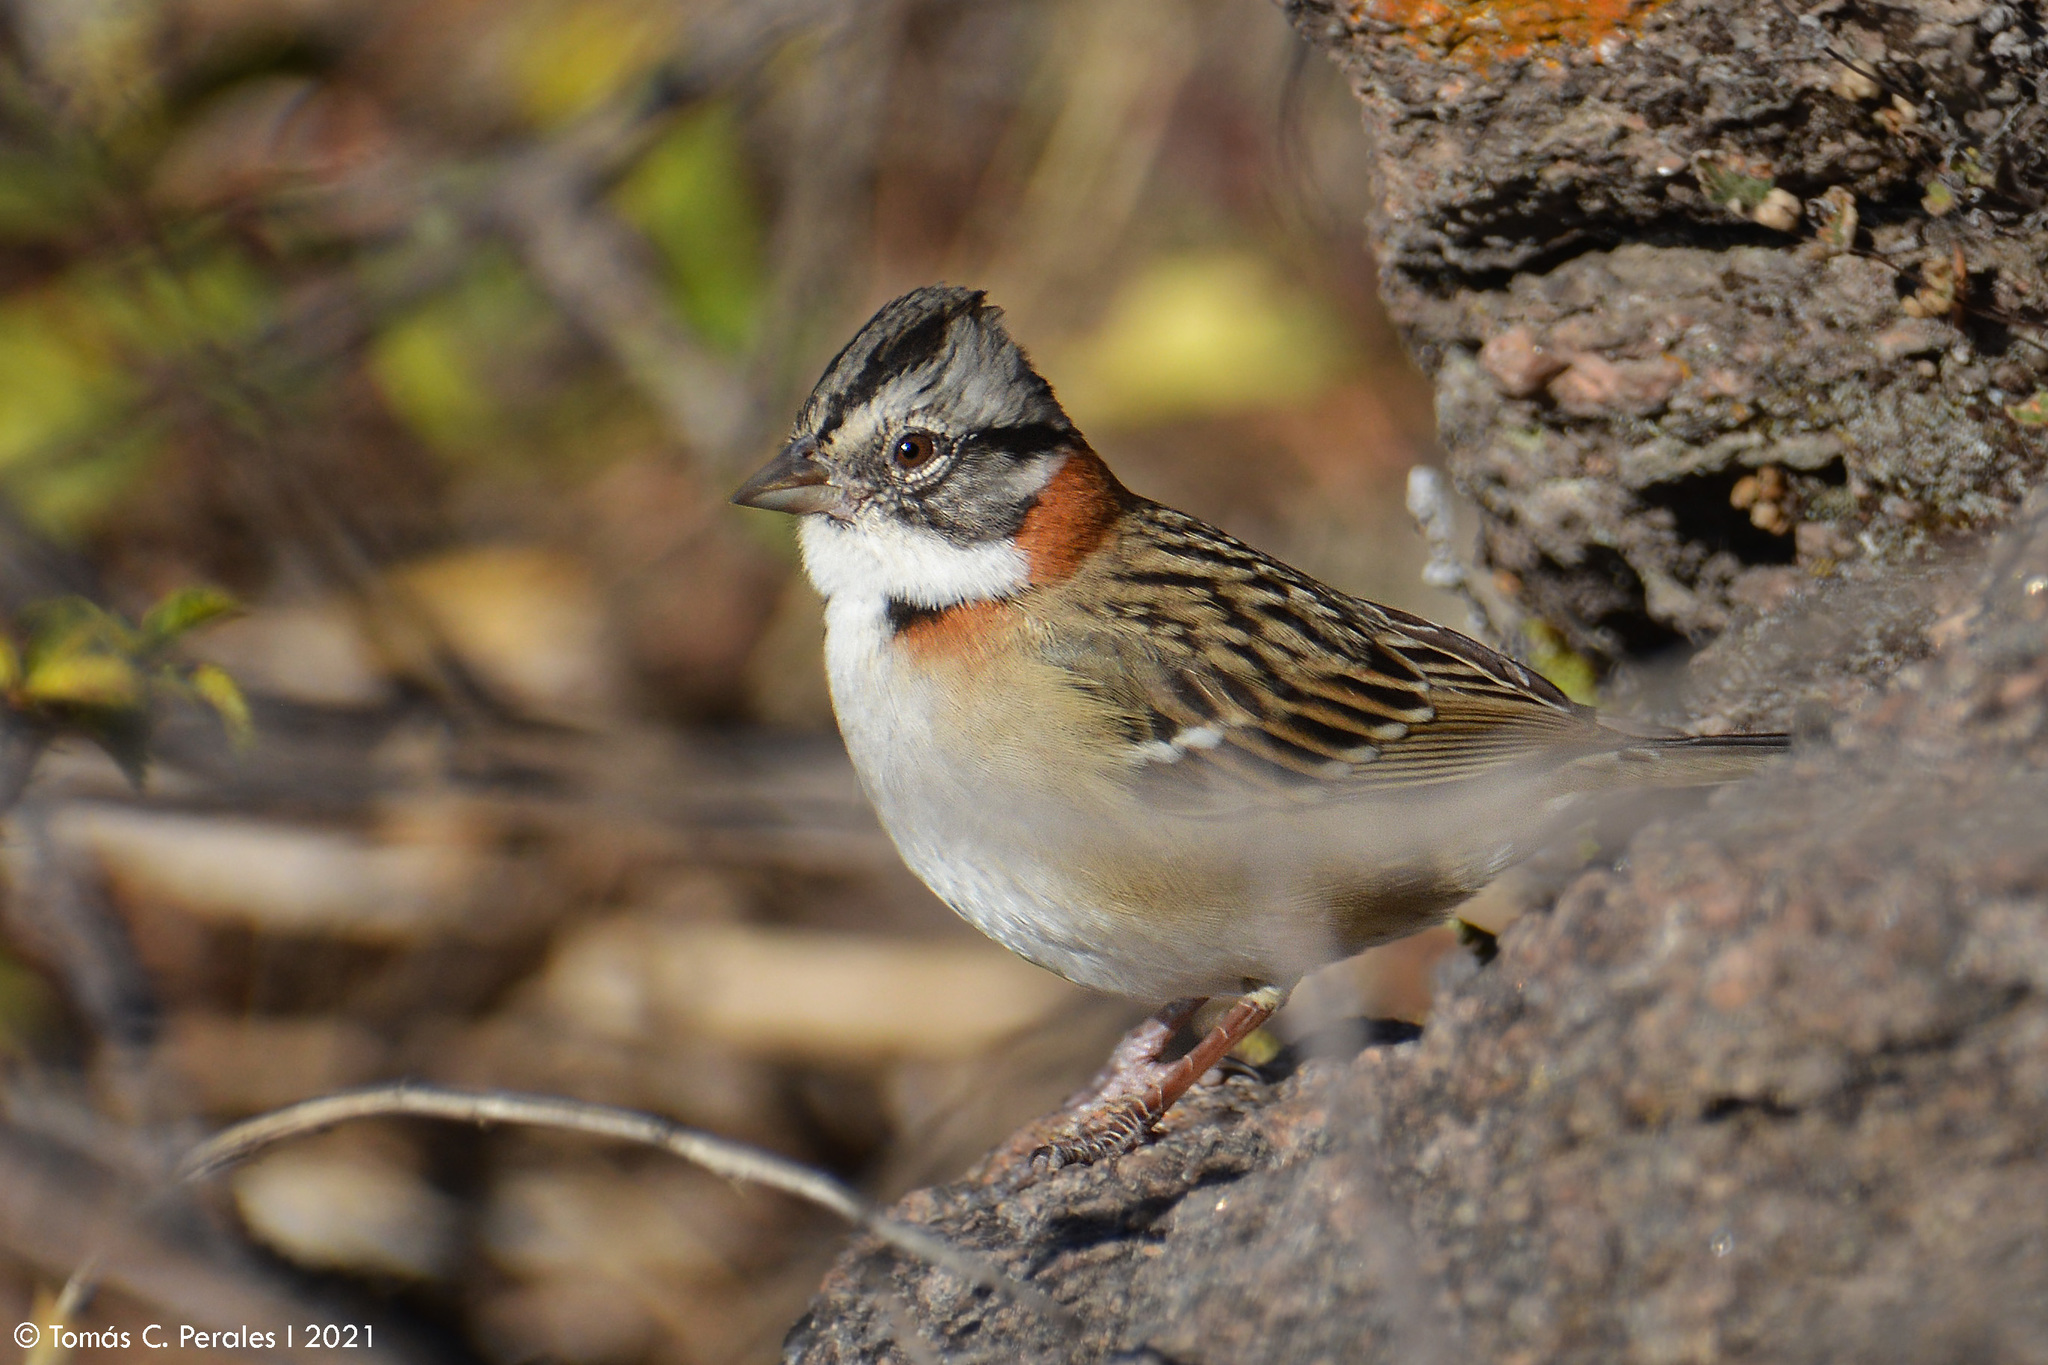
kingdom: Animalia
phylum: Chordata
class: Aves
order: Passeriformes
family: Passerellidae
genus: Zonotrichia
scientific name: Zonotrichia capensis
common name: Rufous-collared sparrow
